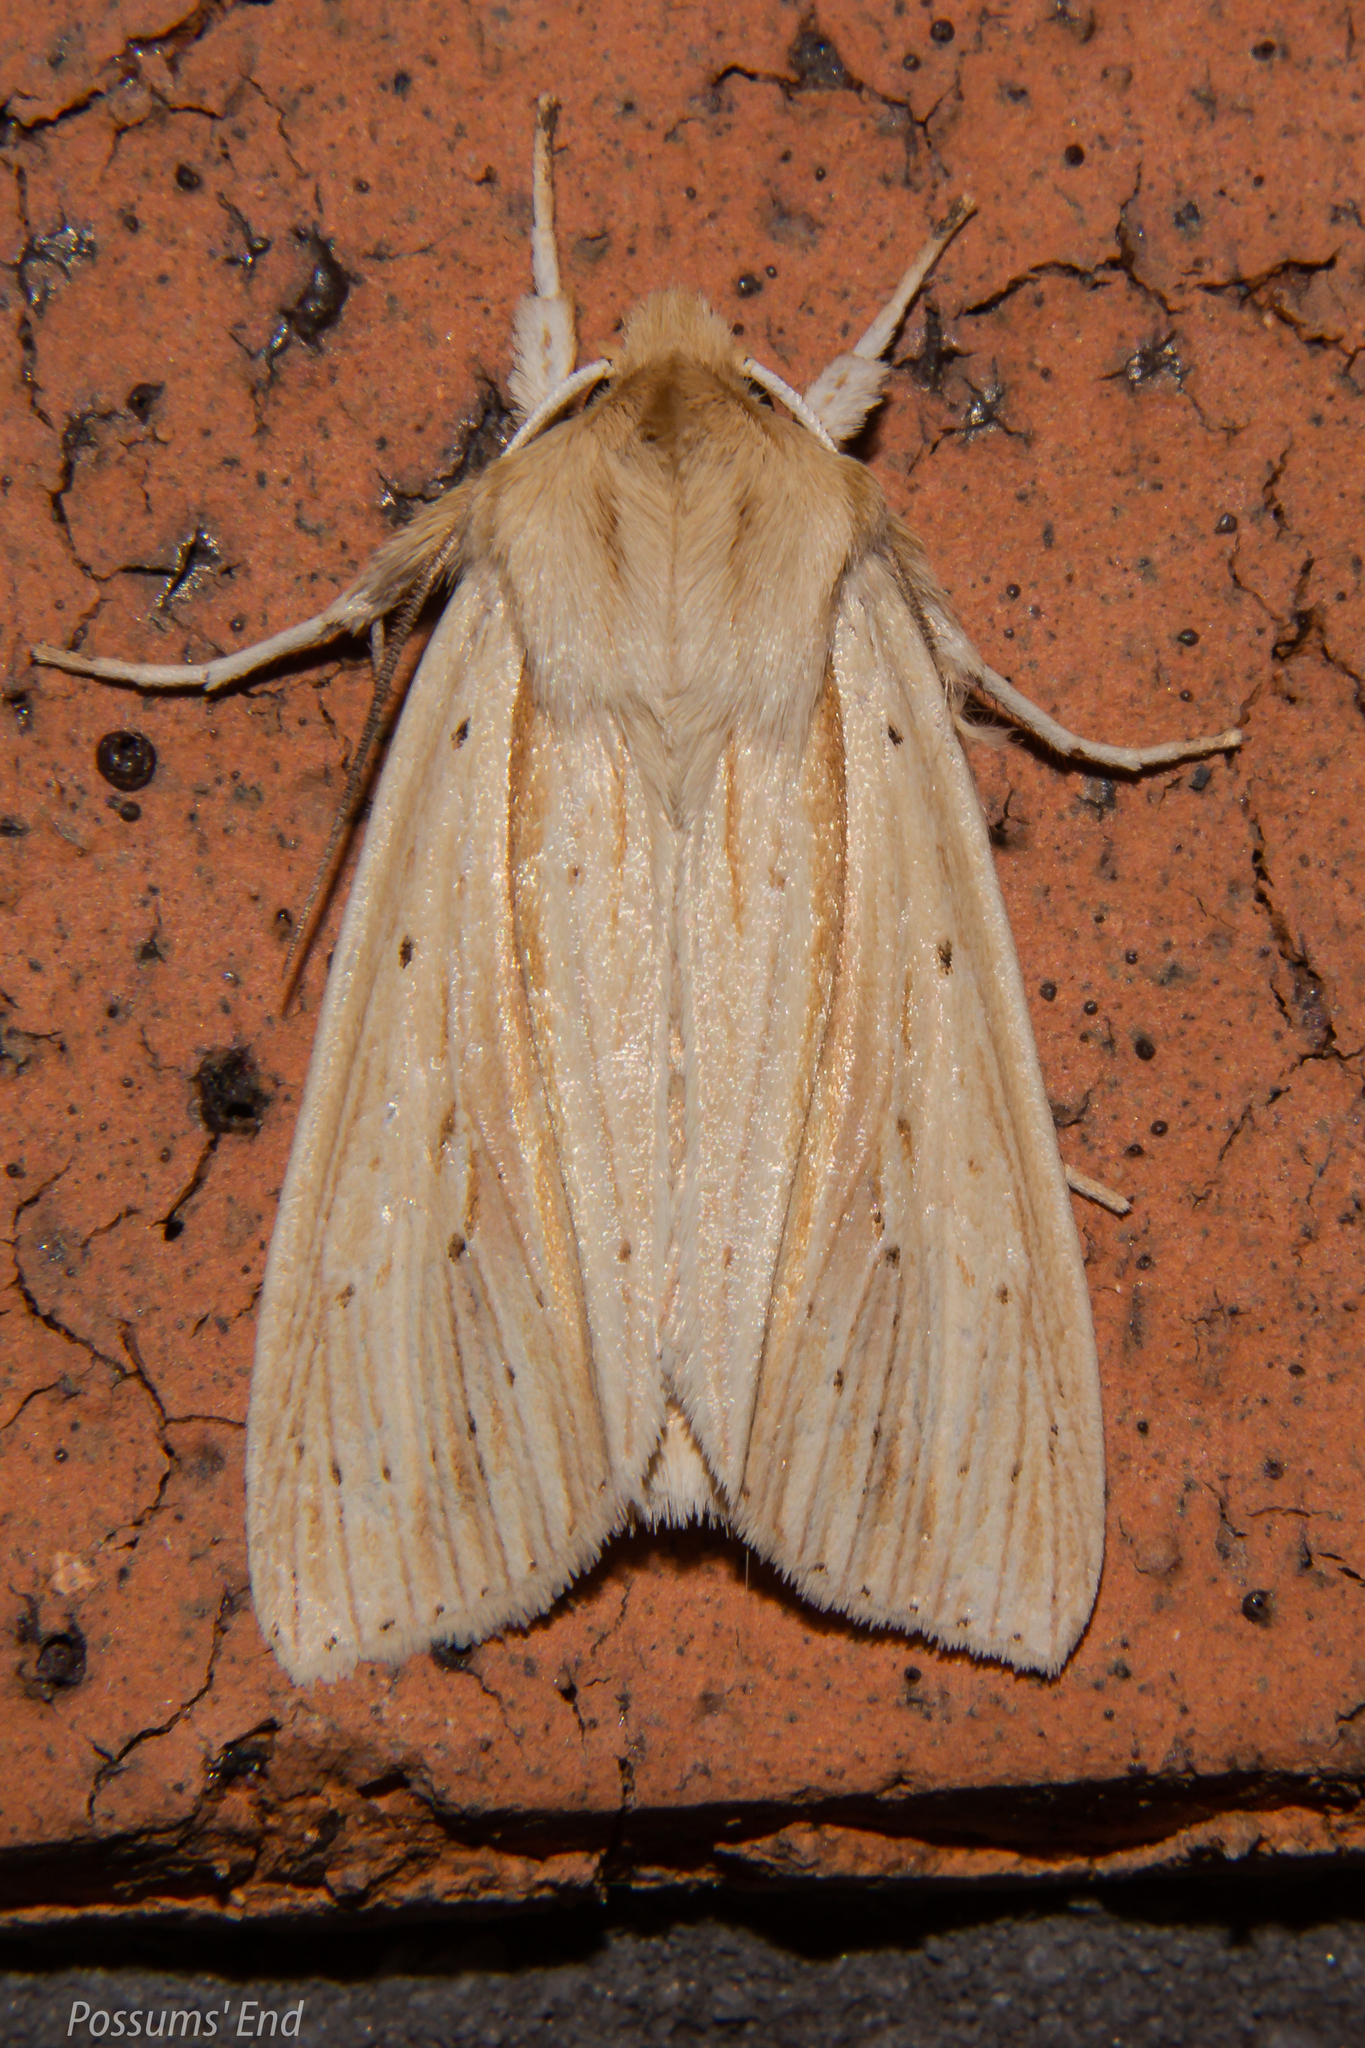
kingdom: Animalia
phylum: Arthropoda
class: Insecta
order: Lepidoptera
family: Noctuidae
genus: Ichneutica
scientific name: Ichneutica semivittata
